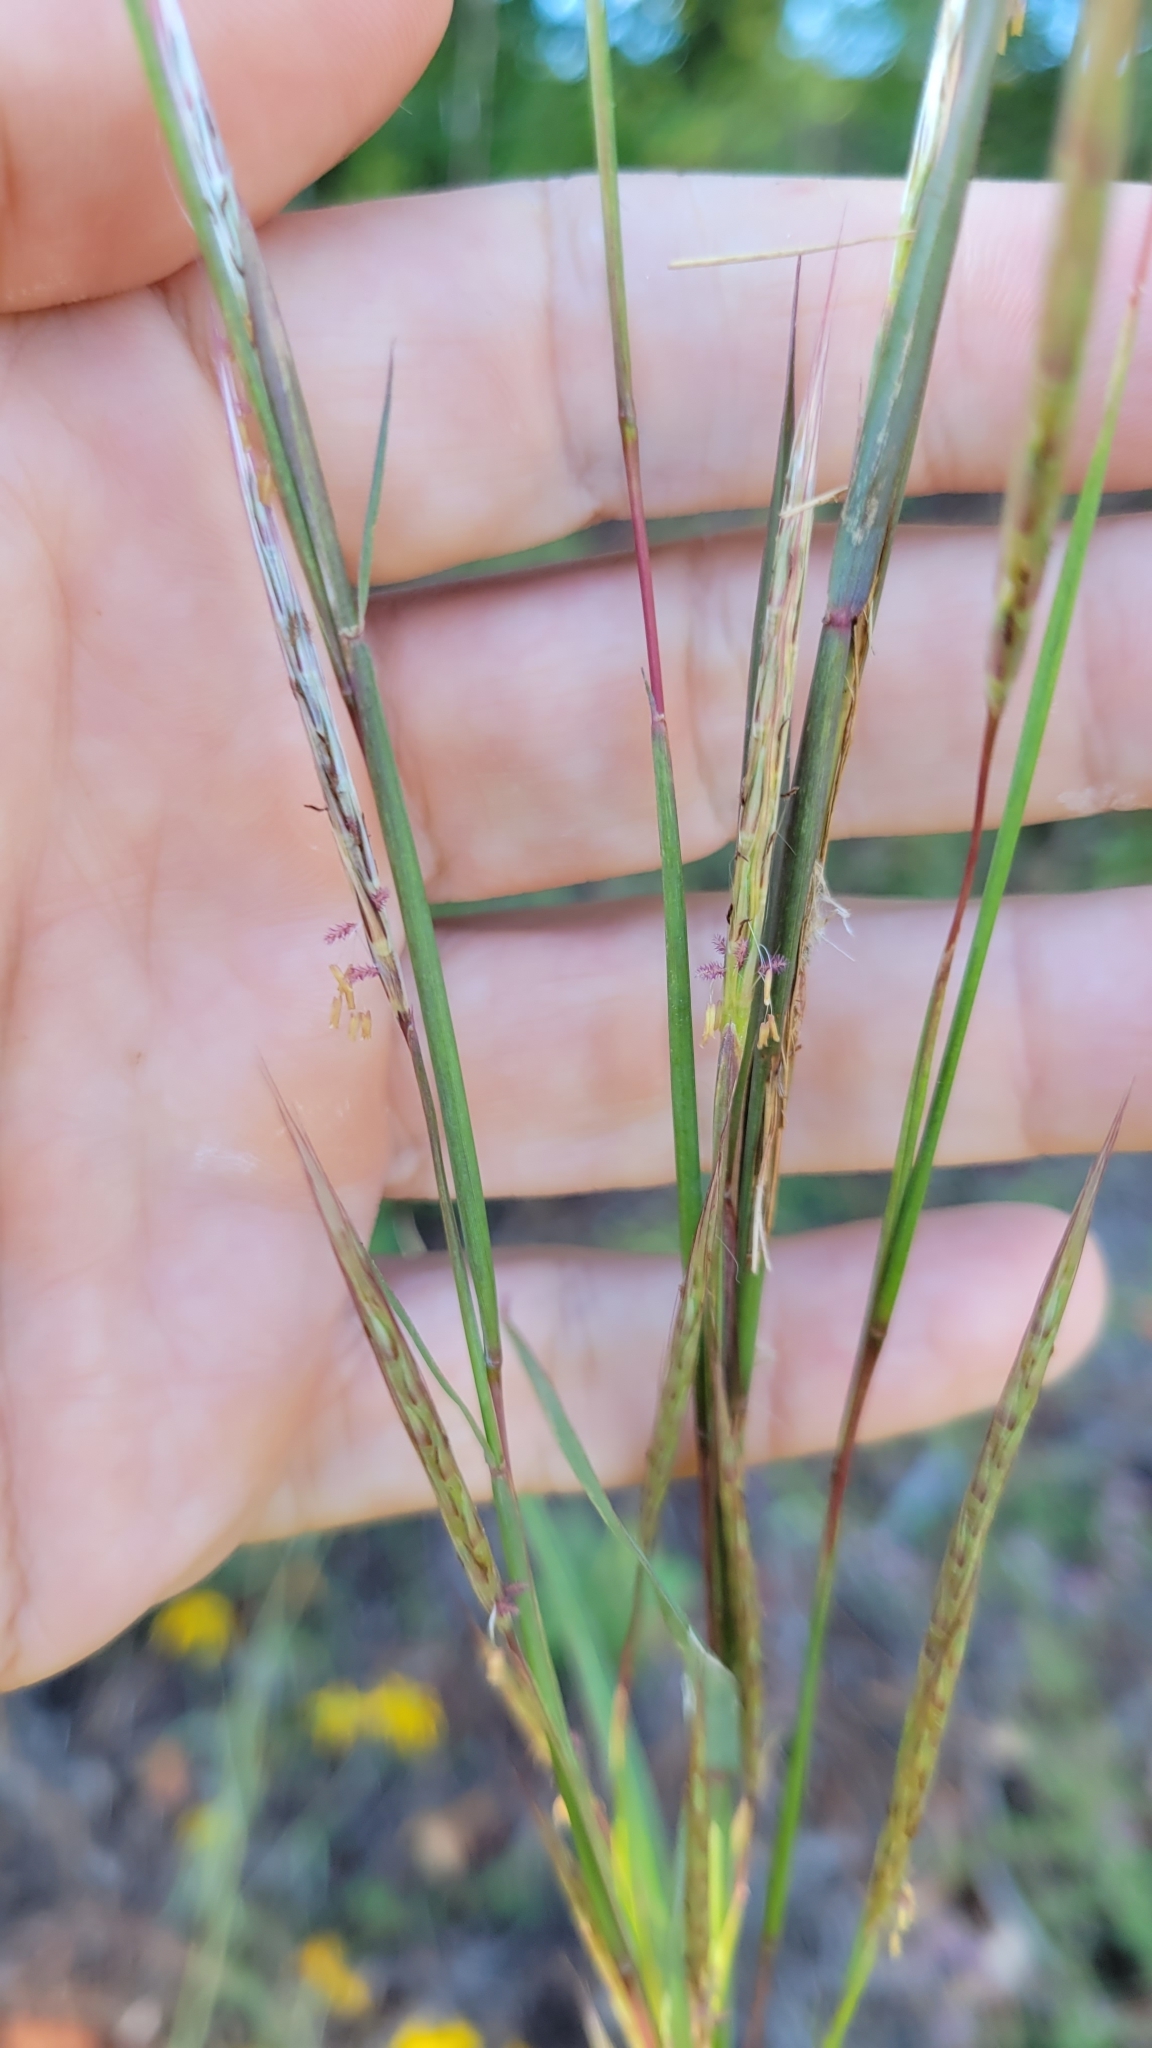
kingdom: Plantae
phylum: Tracheophyta
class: Liliopsida
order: Poales
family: Poaceae
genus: Andropogon
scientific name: Andropogon ternarius
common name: Split bluestem
